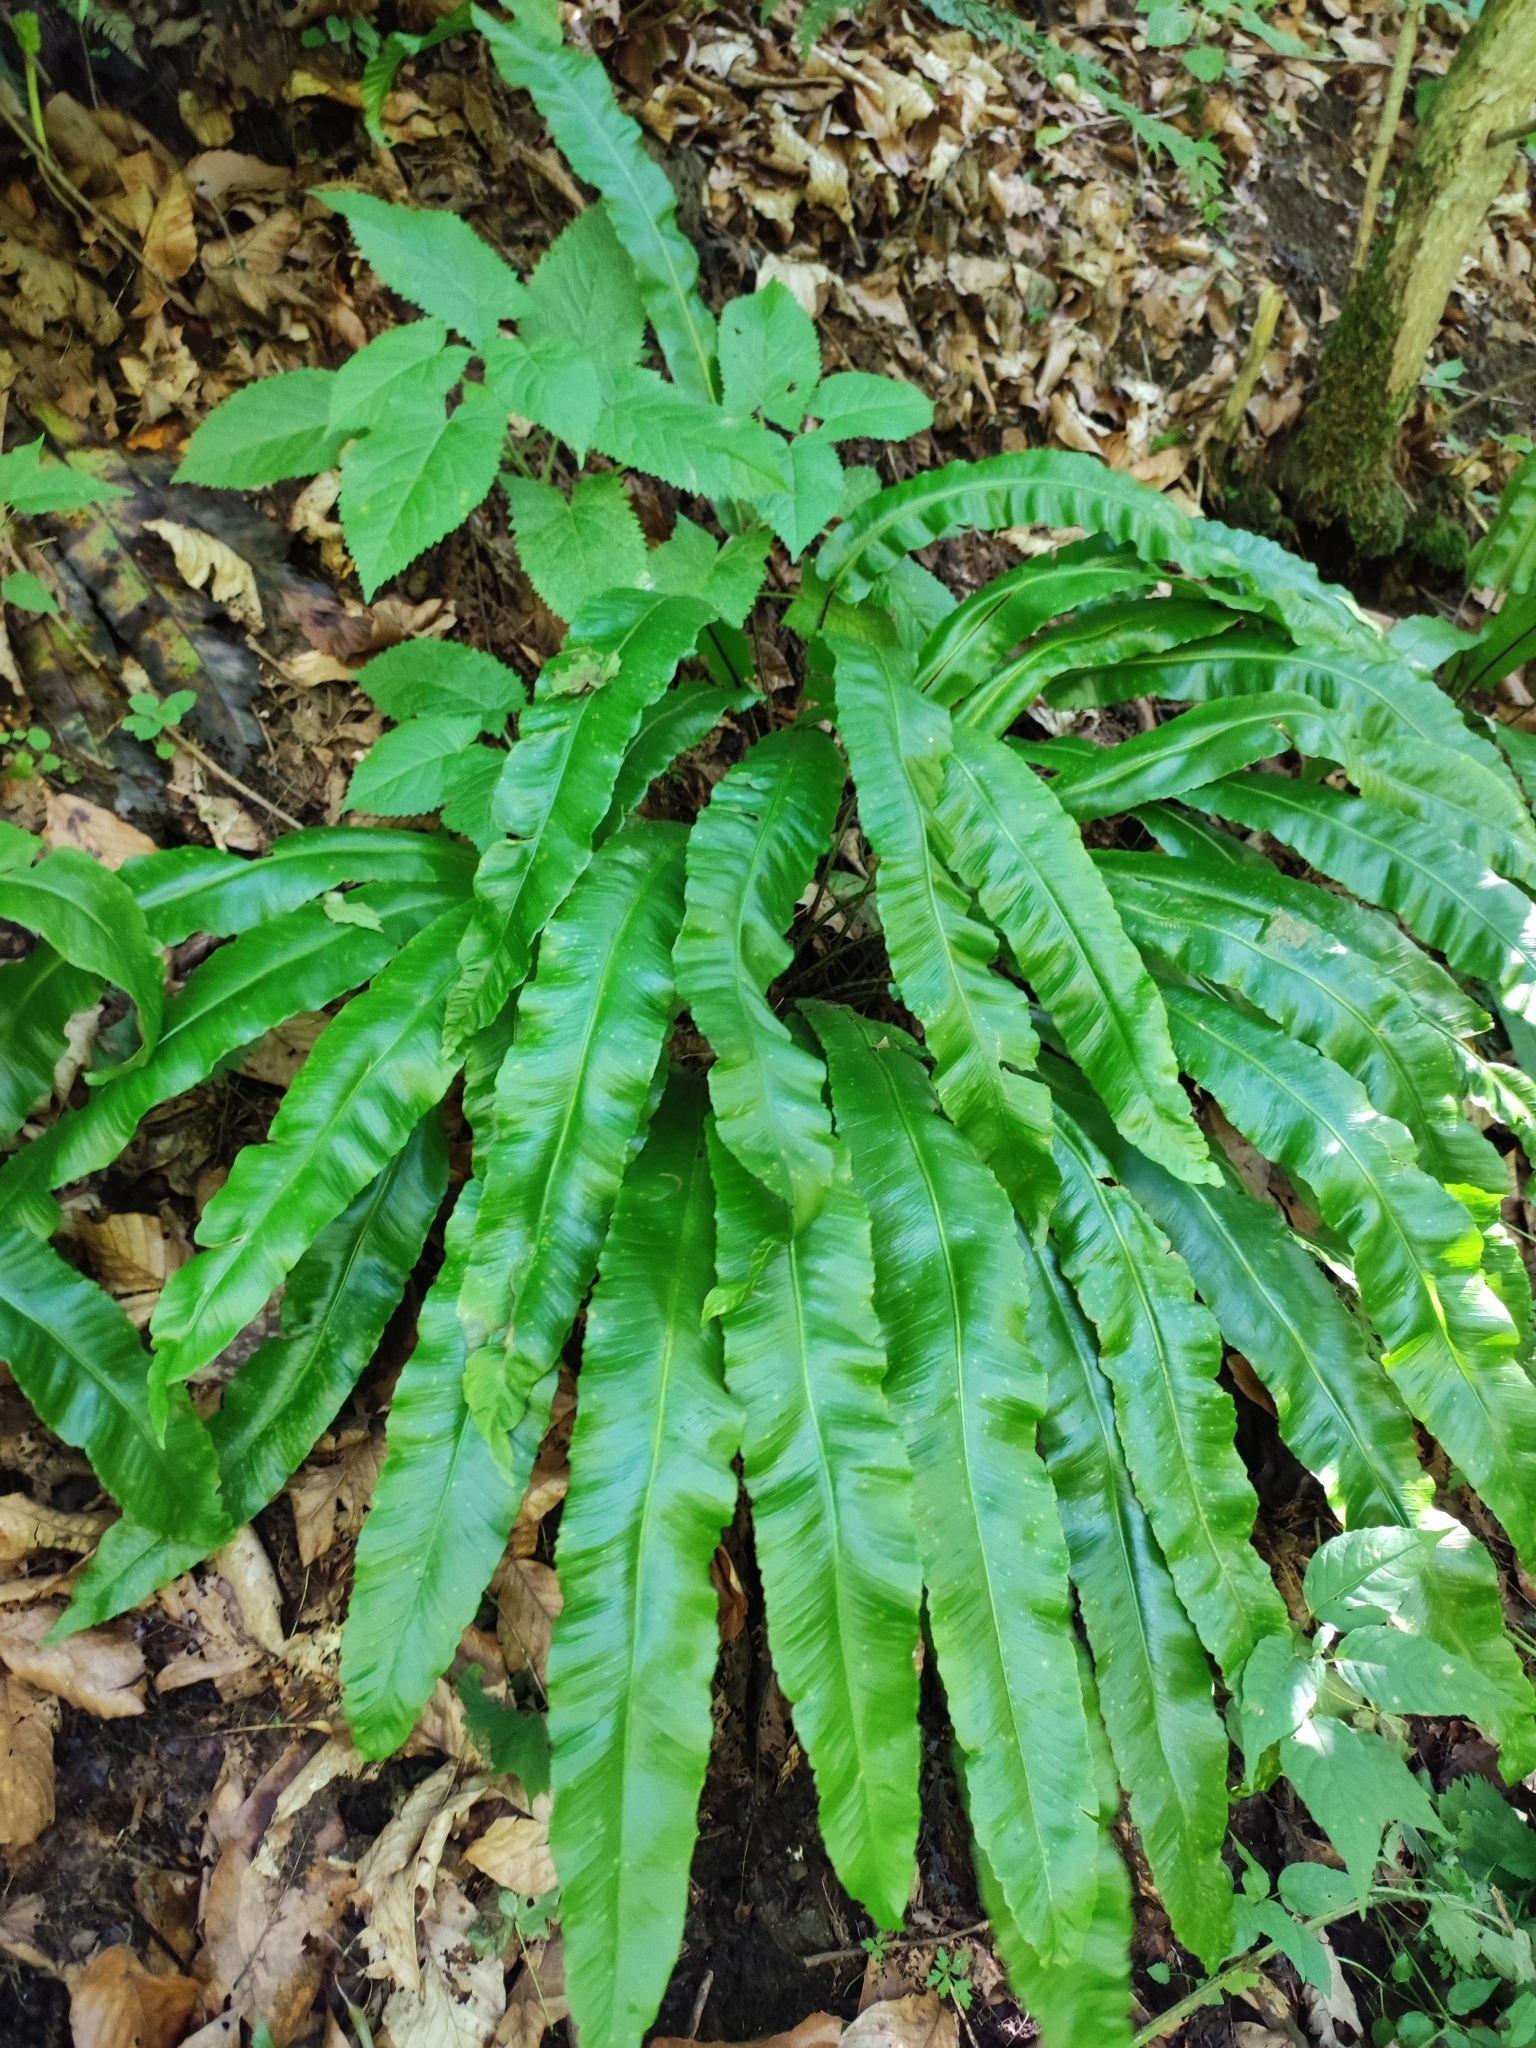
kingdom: Plantae
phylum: Tracheophyta
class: Polypodiopsida
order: Polypodiales
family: Aspleniaceae
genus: Asplenium
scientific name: Asplenium scolopendrium
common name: Hart's-tongue fern
